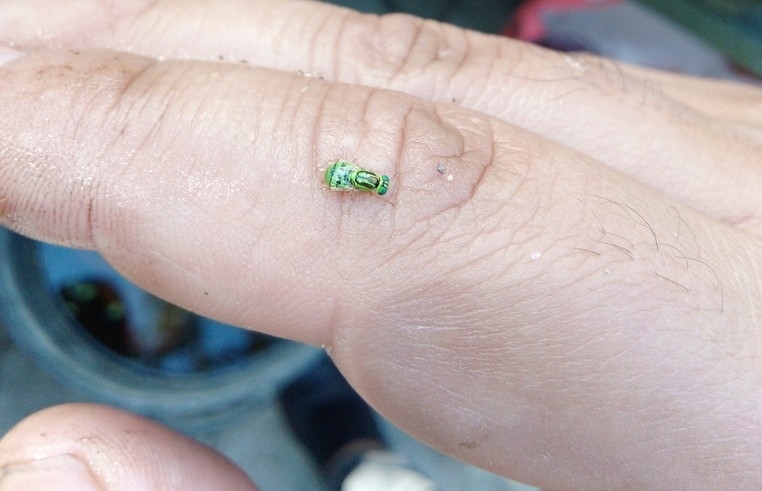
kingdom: Animalia
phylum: Arthropoda
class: Insecta
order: Diptera
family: Stratiomyidae
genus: Oxycera
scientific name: Oxycera trilineata
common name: Three-lined soldier
